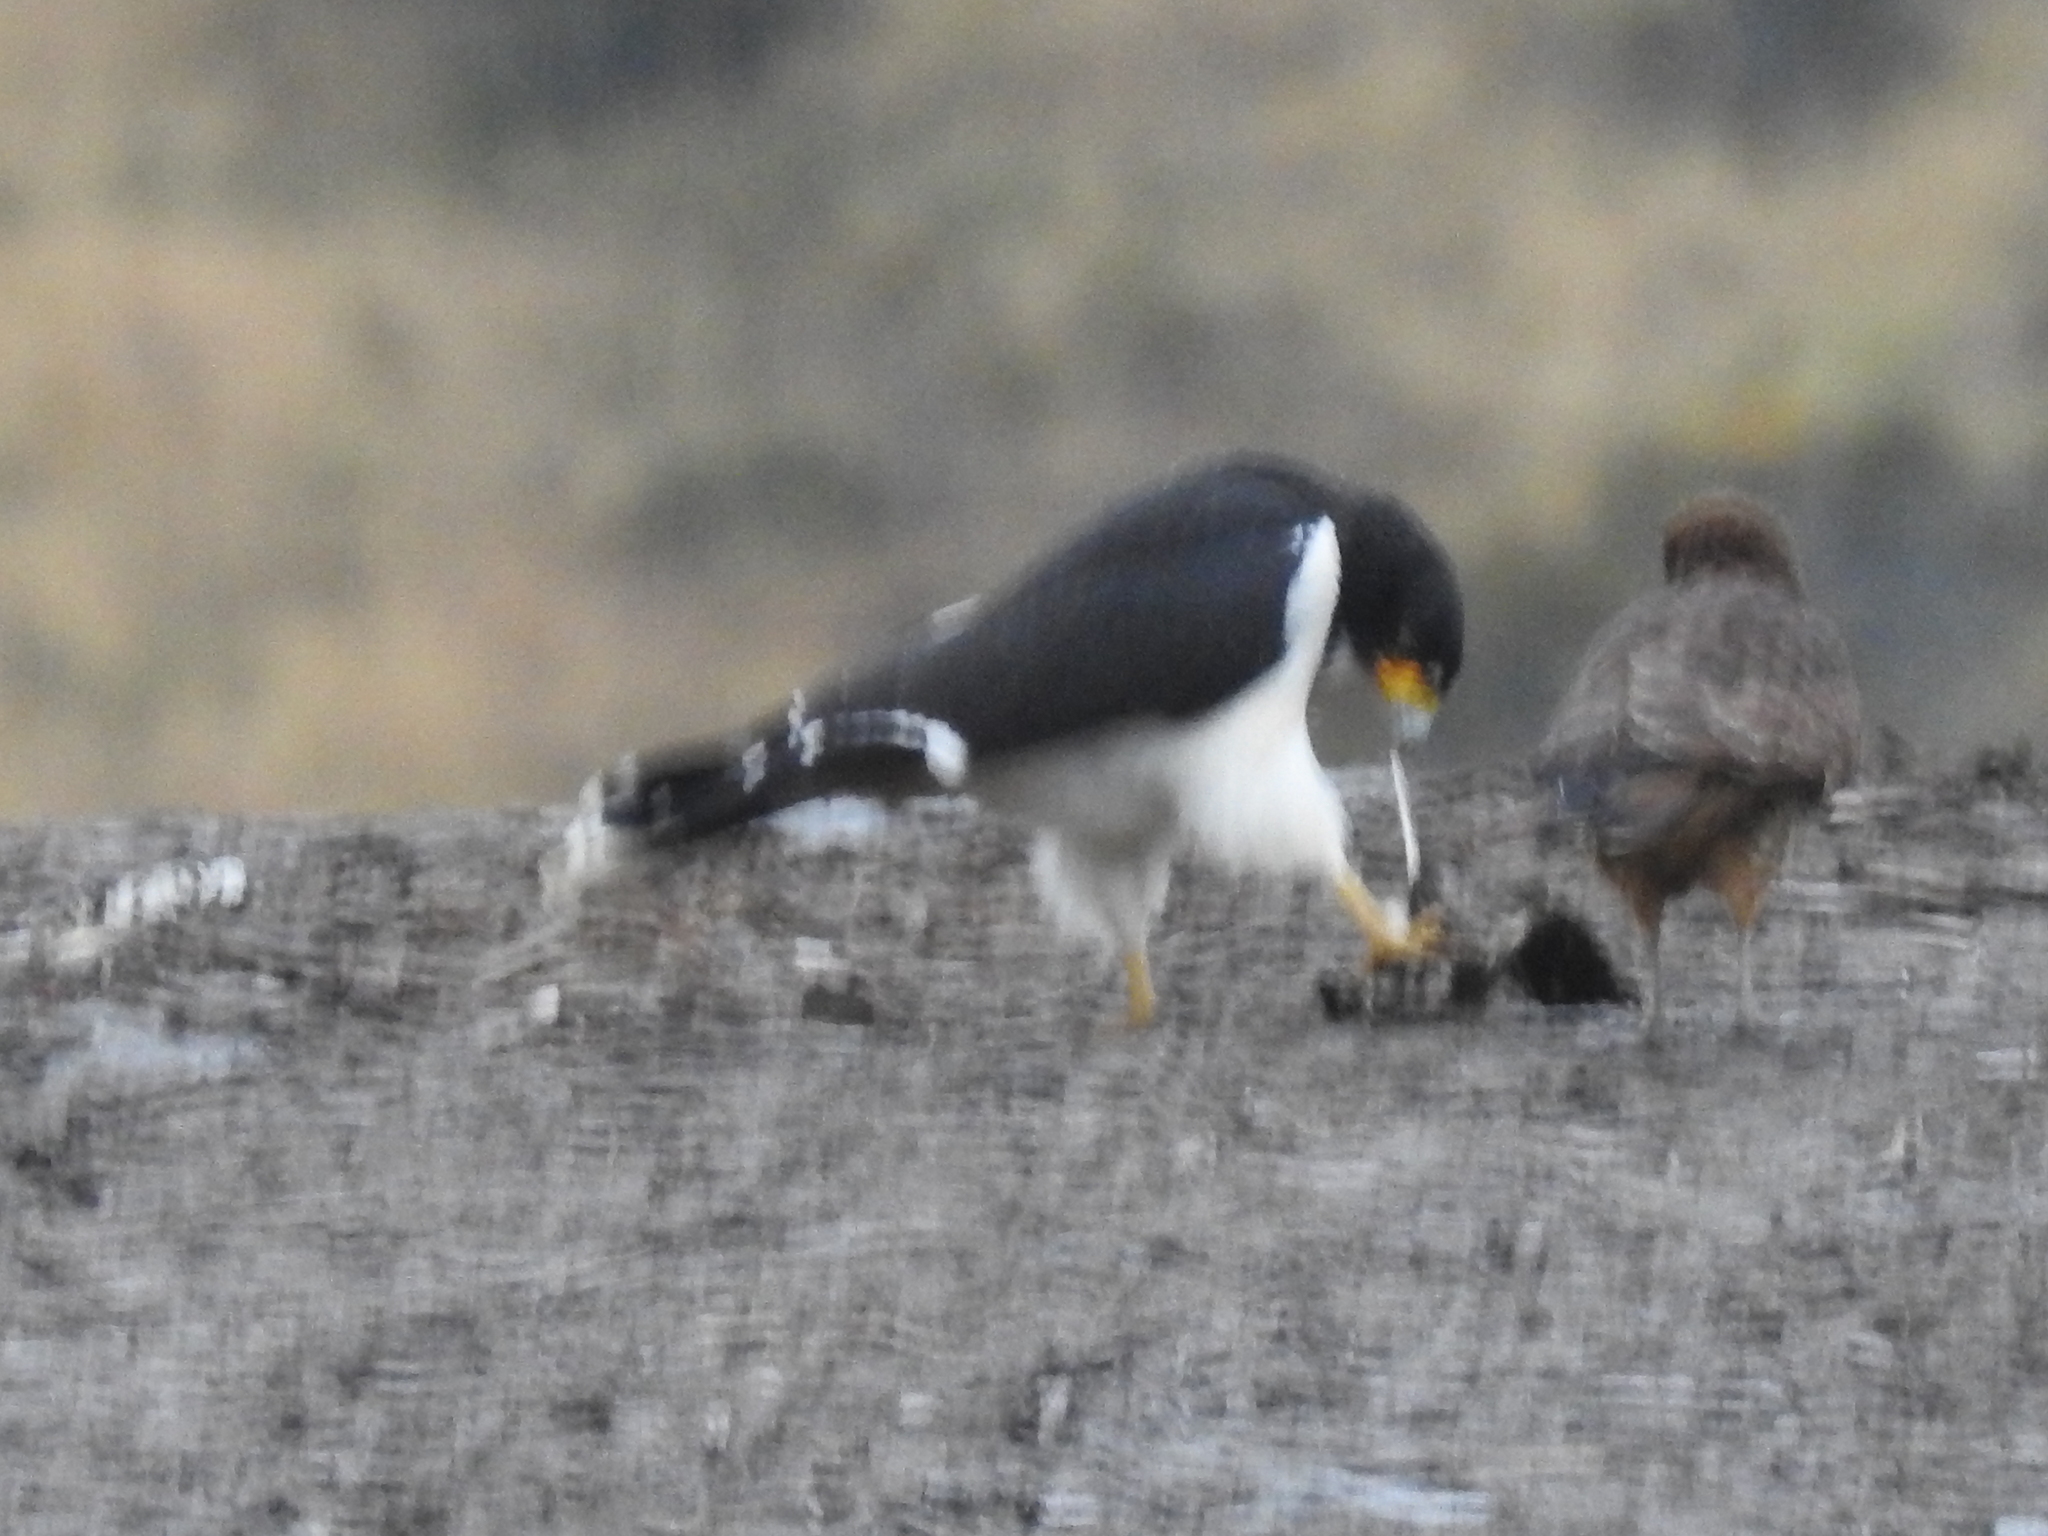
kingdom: Animalia
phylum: Chordata
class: Aves
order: Falconiformes
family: Falconidae
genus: Daptrius
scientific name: Daptrius
